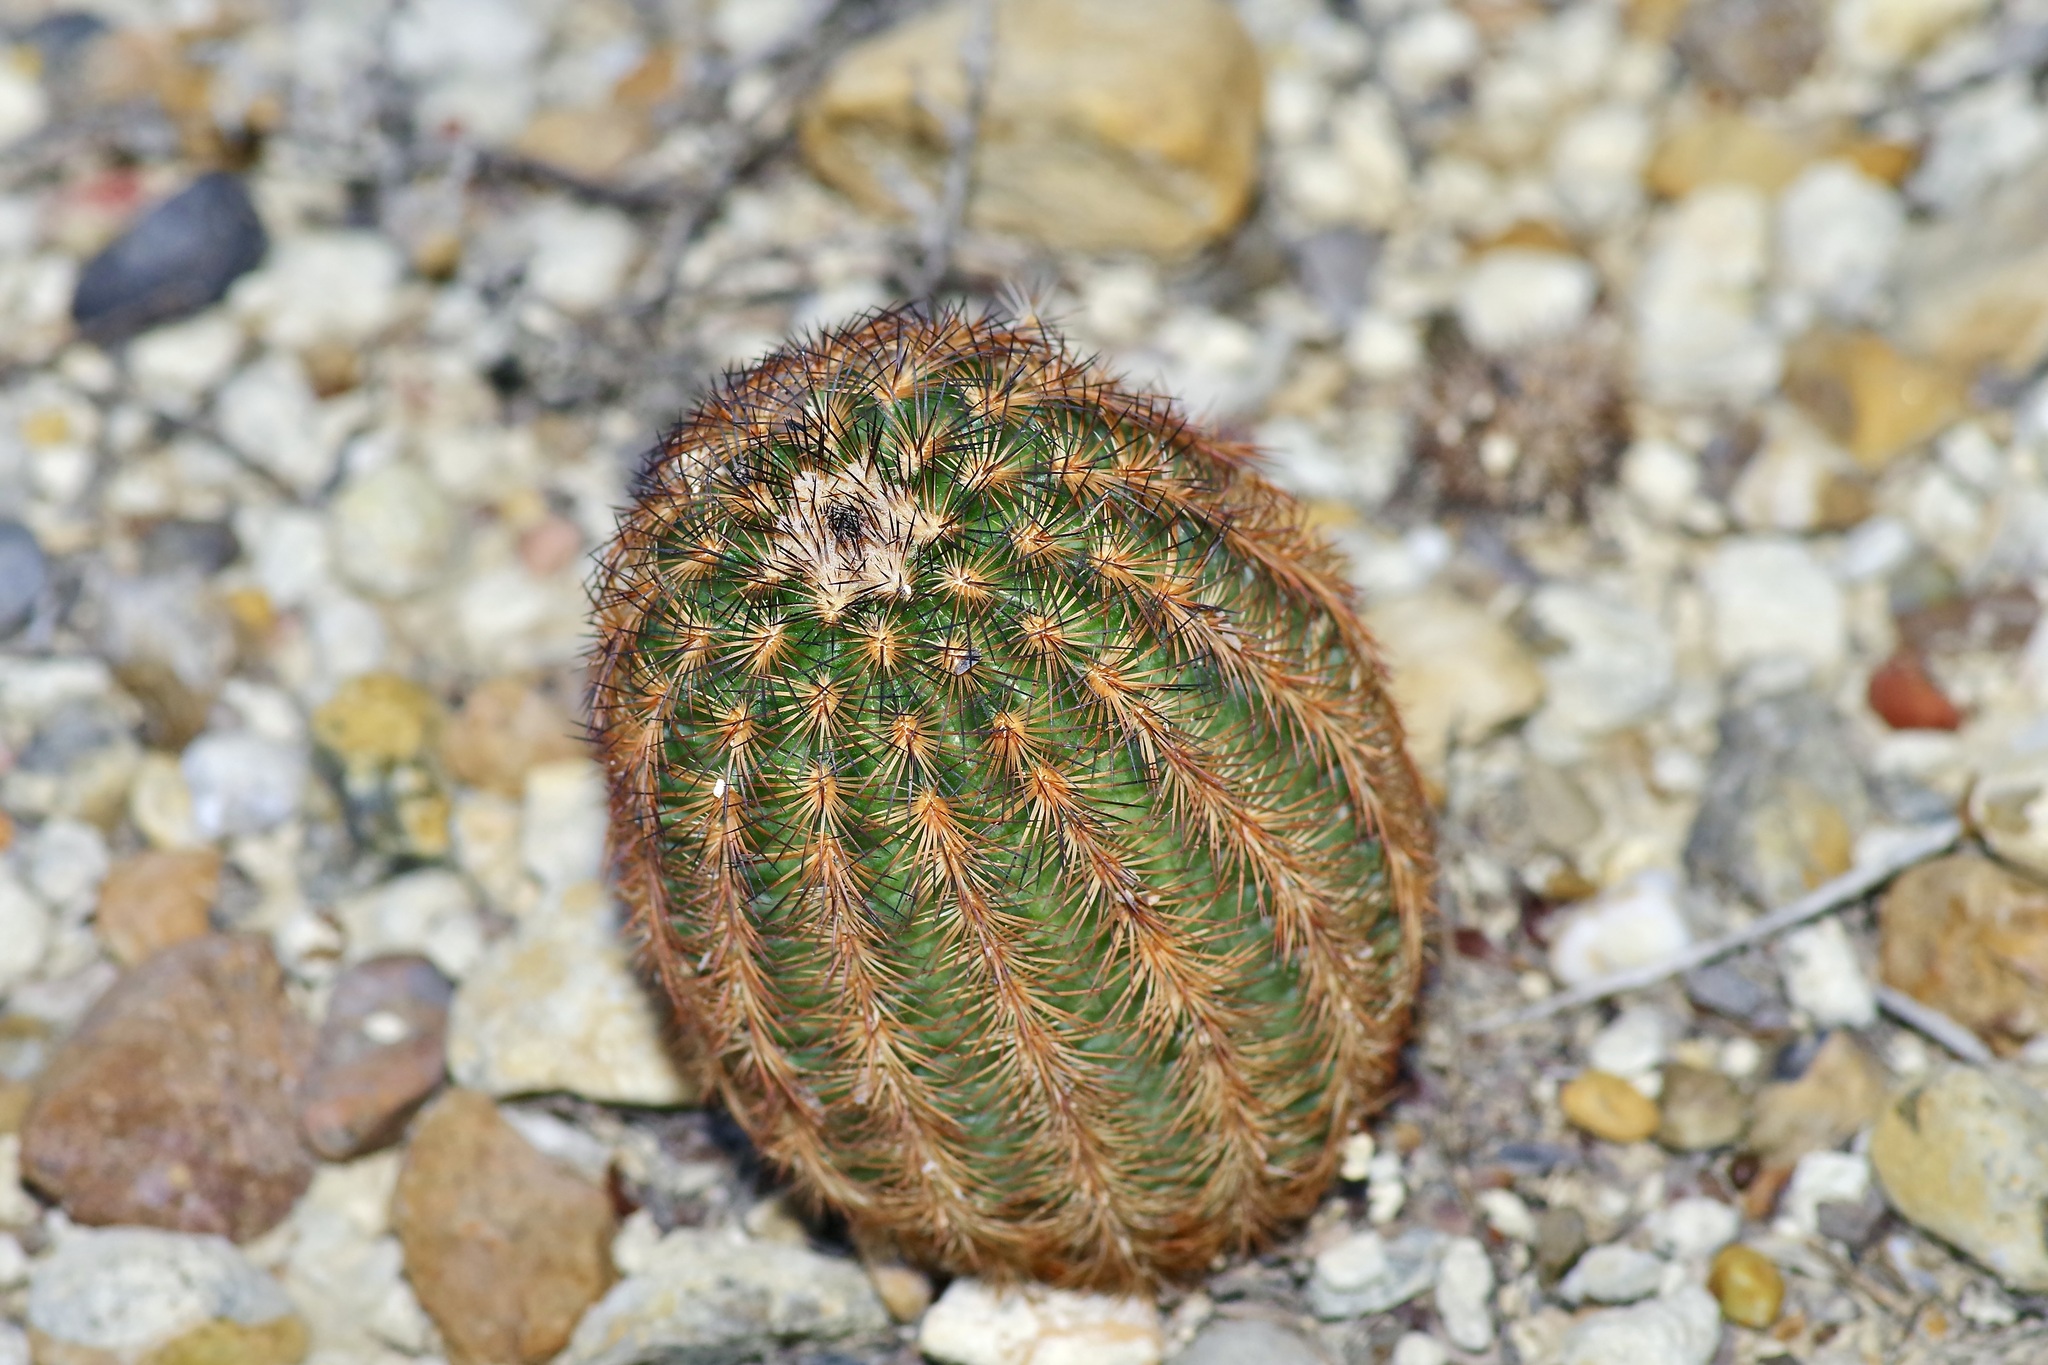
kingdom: Plantae
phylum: Tracheophyta
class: Magnoliopsida
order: Caryophyllales
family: Cactaceae
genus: Echinocereus
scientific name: Echinocereus reichenbachii
